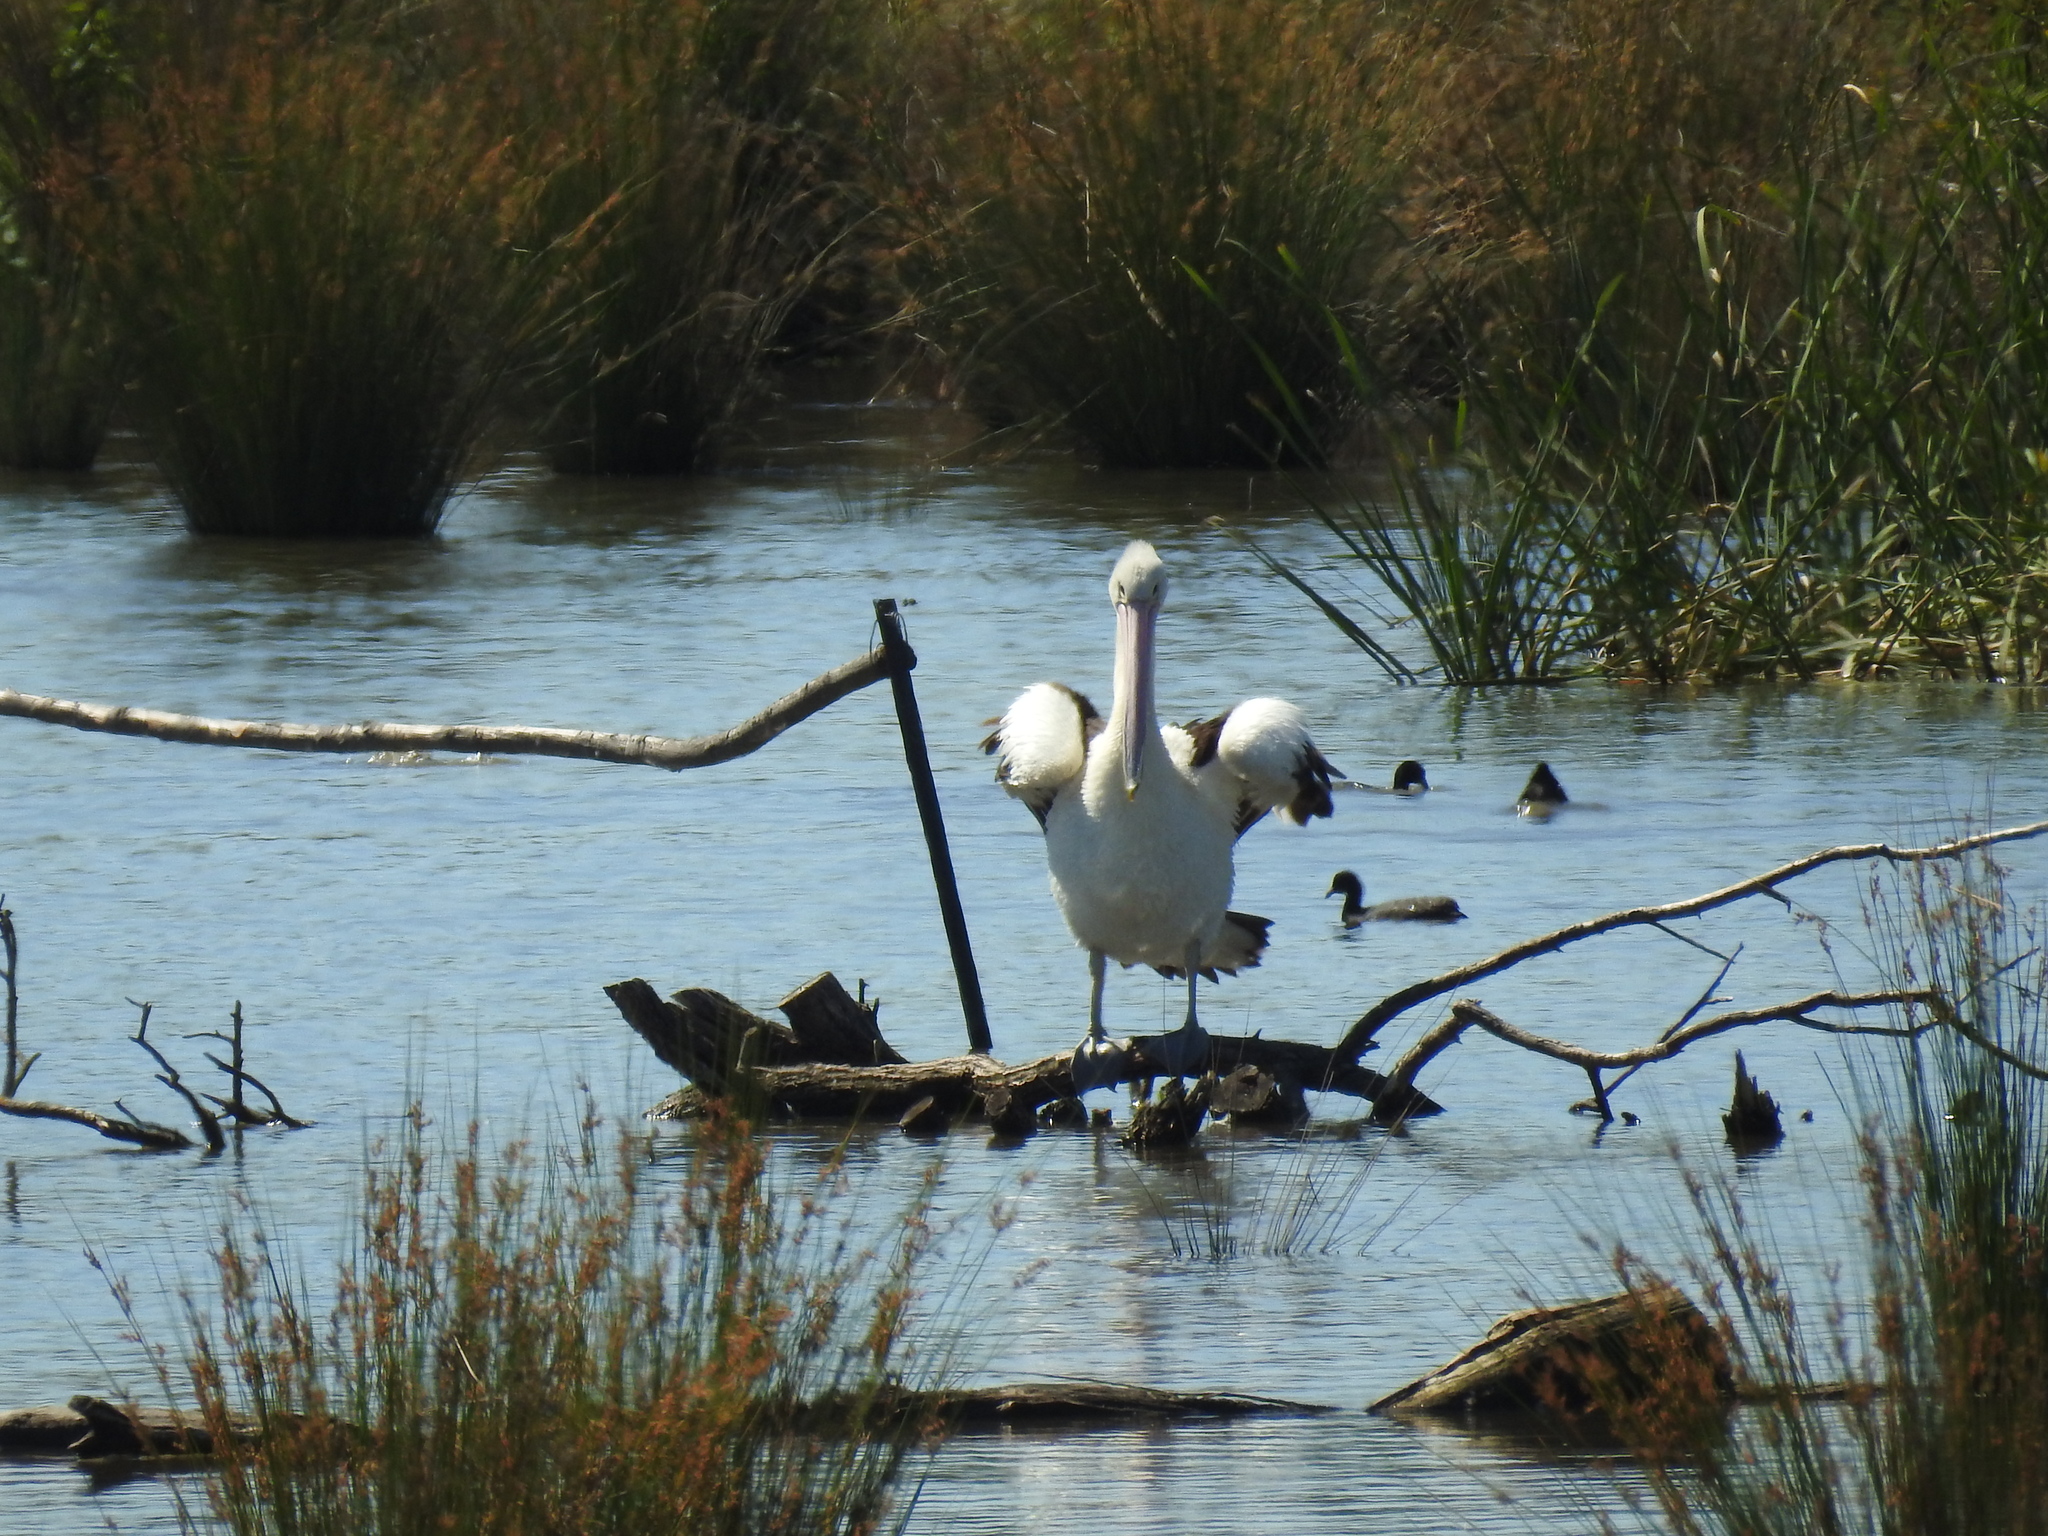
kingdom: Animalia
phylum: Chordata
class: Aves
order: Pelecaniformes
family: Pelecanidae
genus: Pelecanus
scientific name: Pelecanus conspicillatus
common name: Australian pelican
